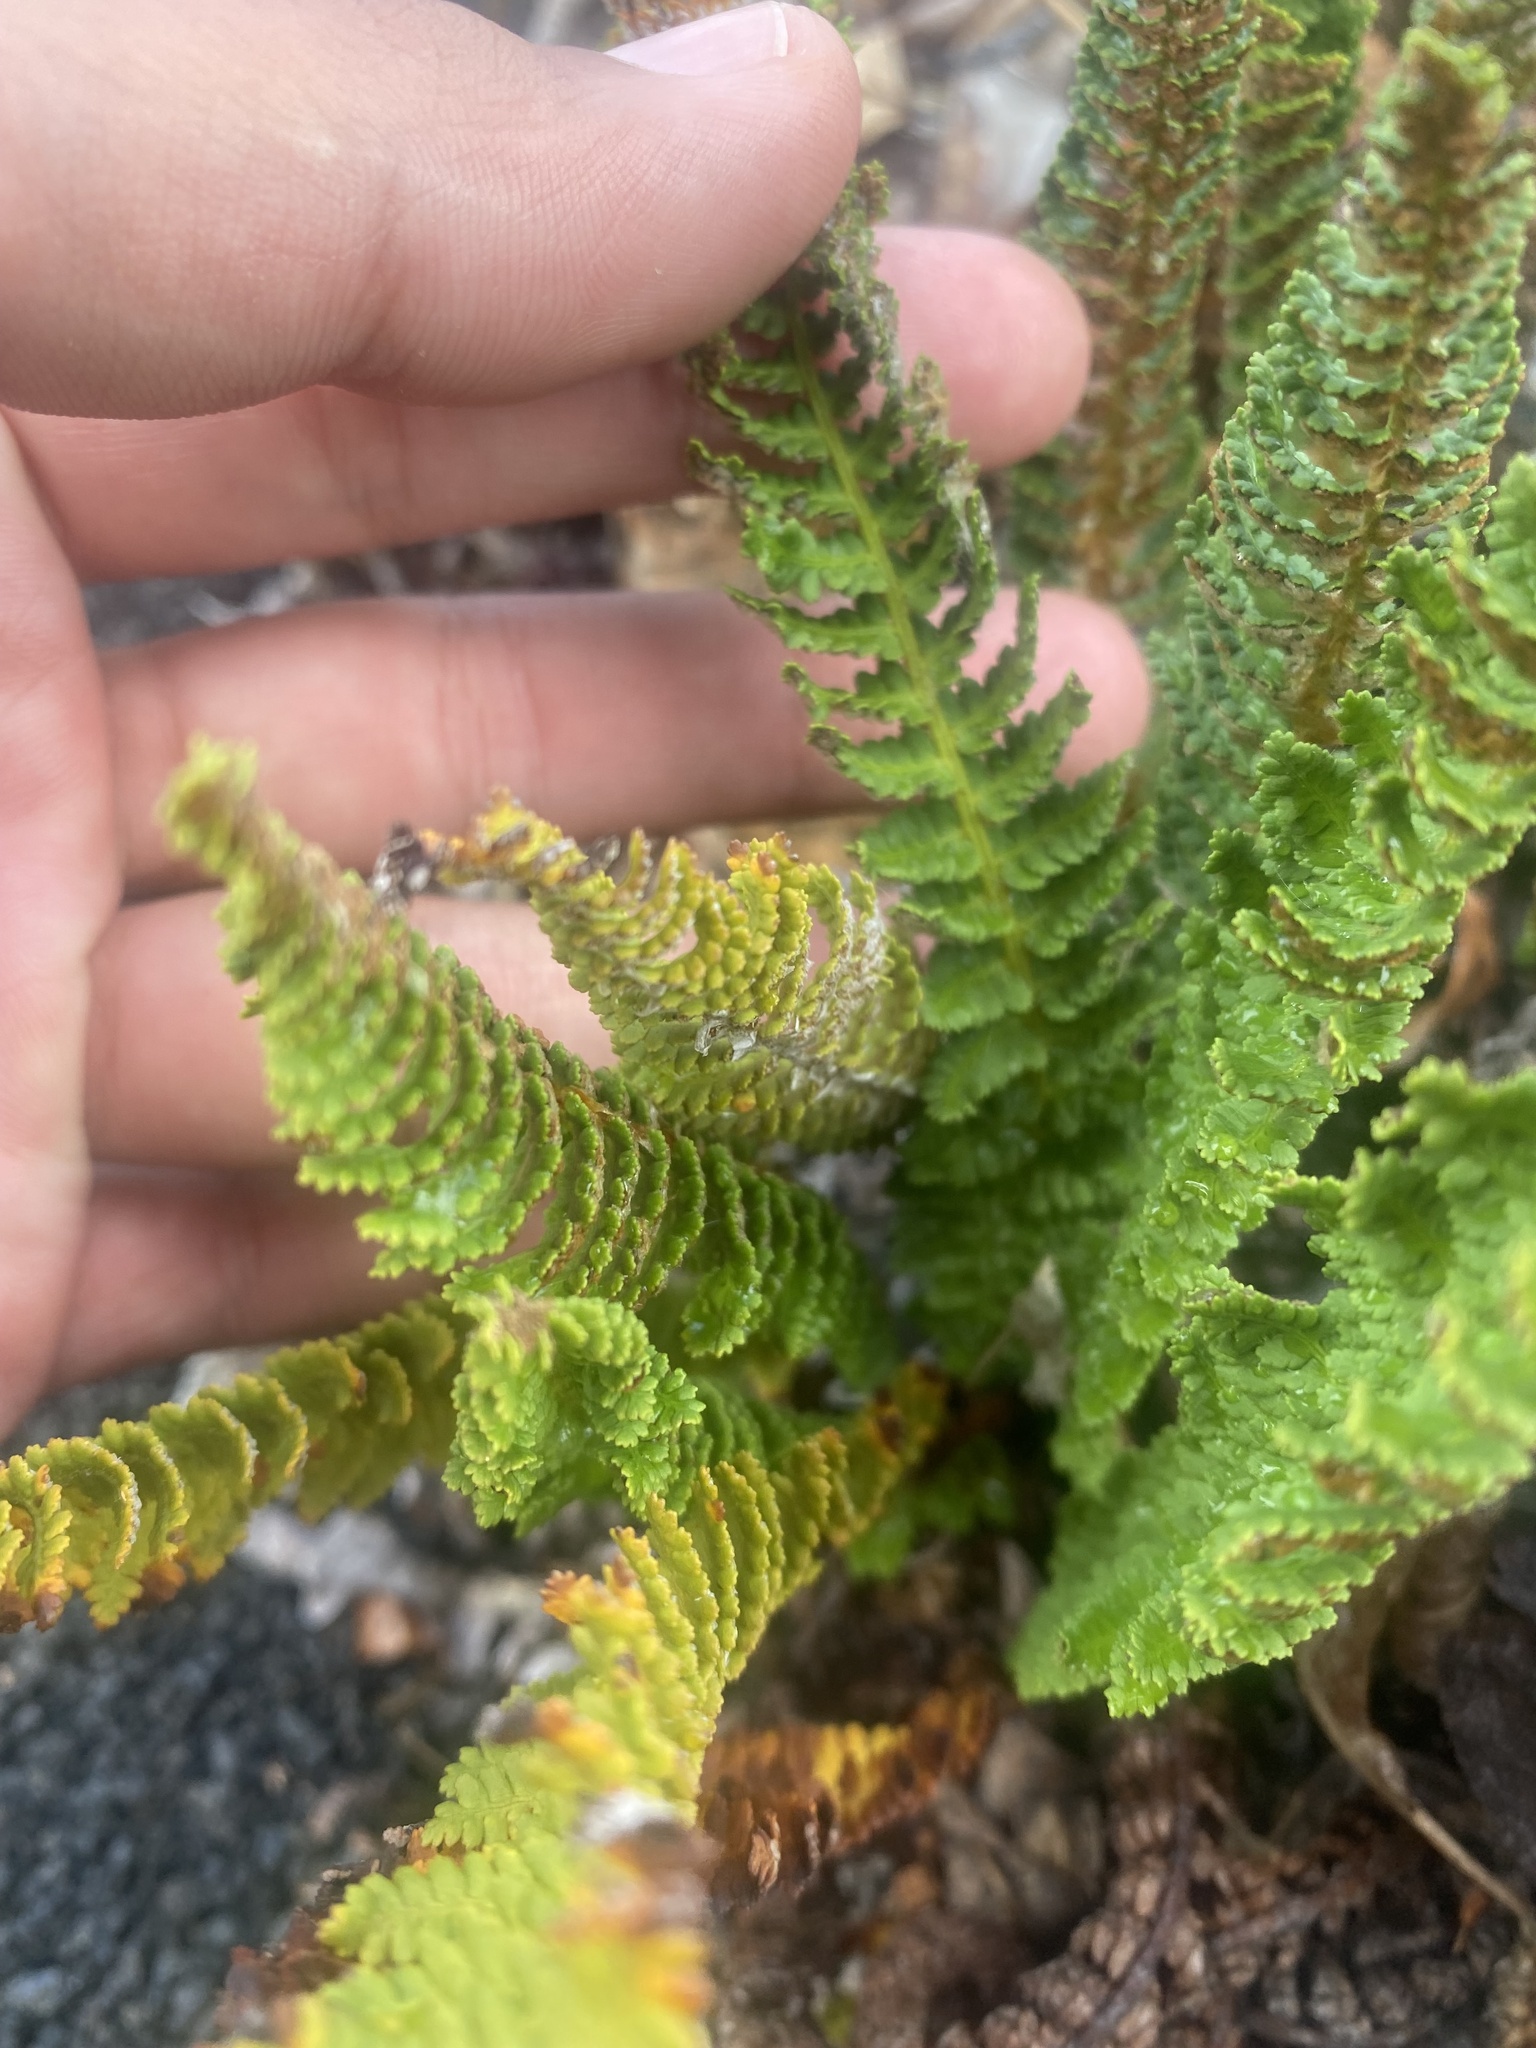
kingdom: Plantae
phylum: Tracheophyta
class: Polypodiopsida
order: Polypodiales
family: Dryopteridaceae
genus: Dryopteris
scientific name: Dryopteris fragrans
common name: Fragrant wood fern
